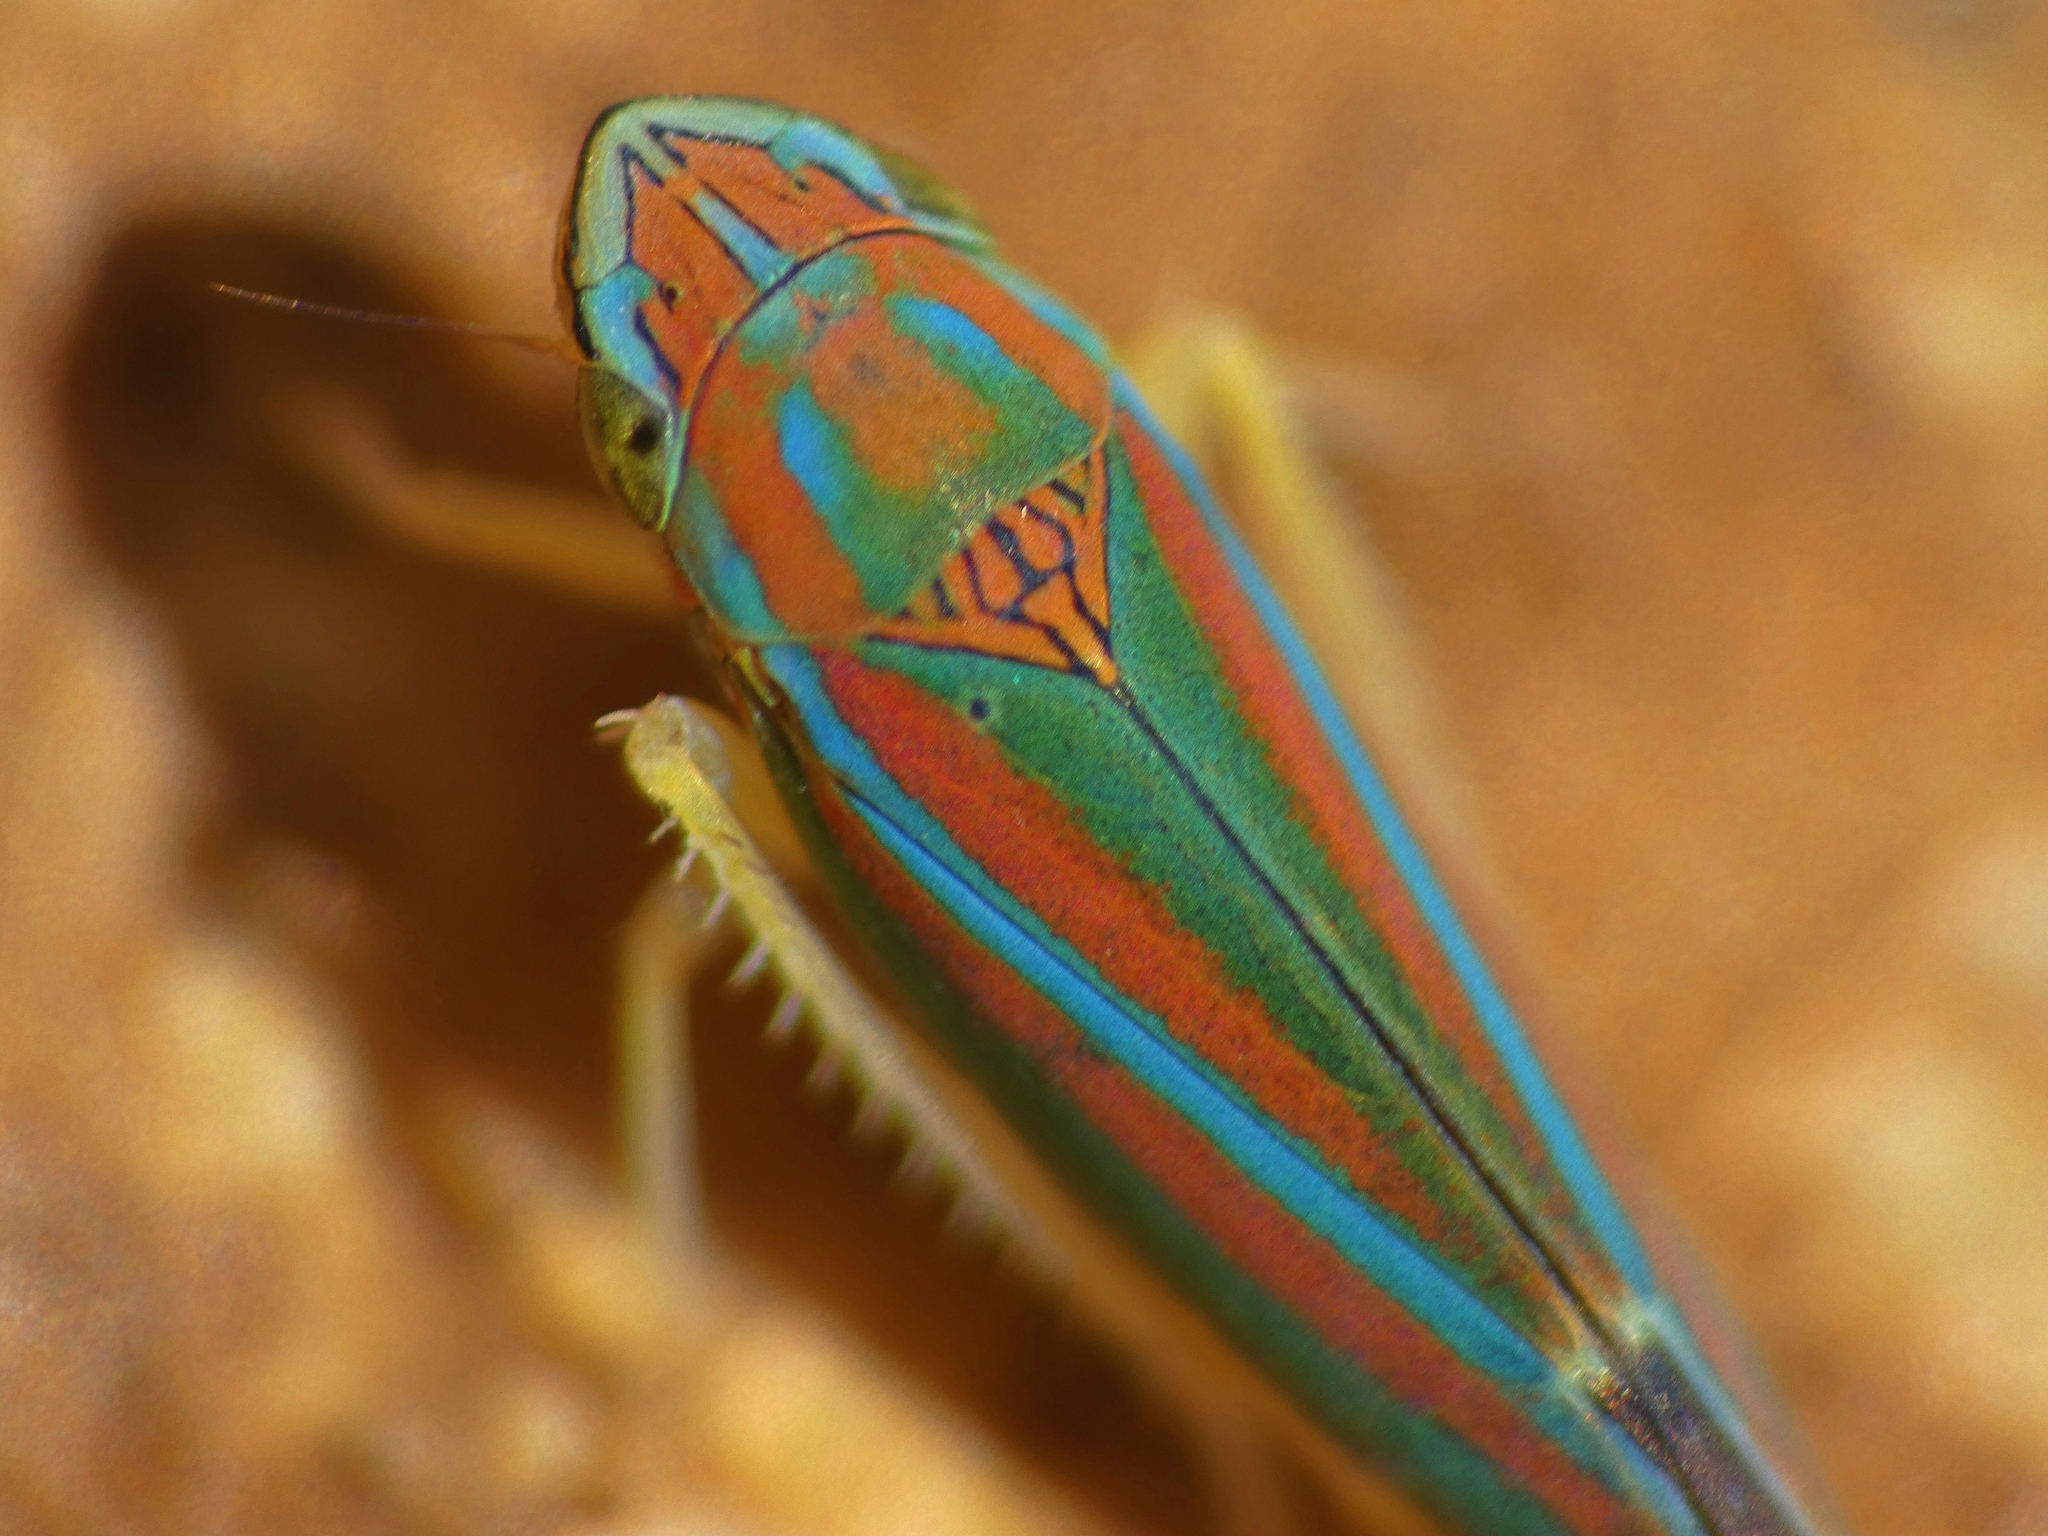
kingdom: Animalia
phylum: Arthropoda
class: Insecta
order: Hemiptera
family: Cicadellidae
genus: Graphocephala
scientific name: Graphocephala versuta
